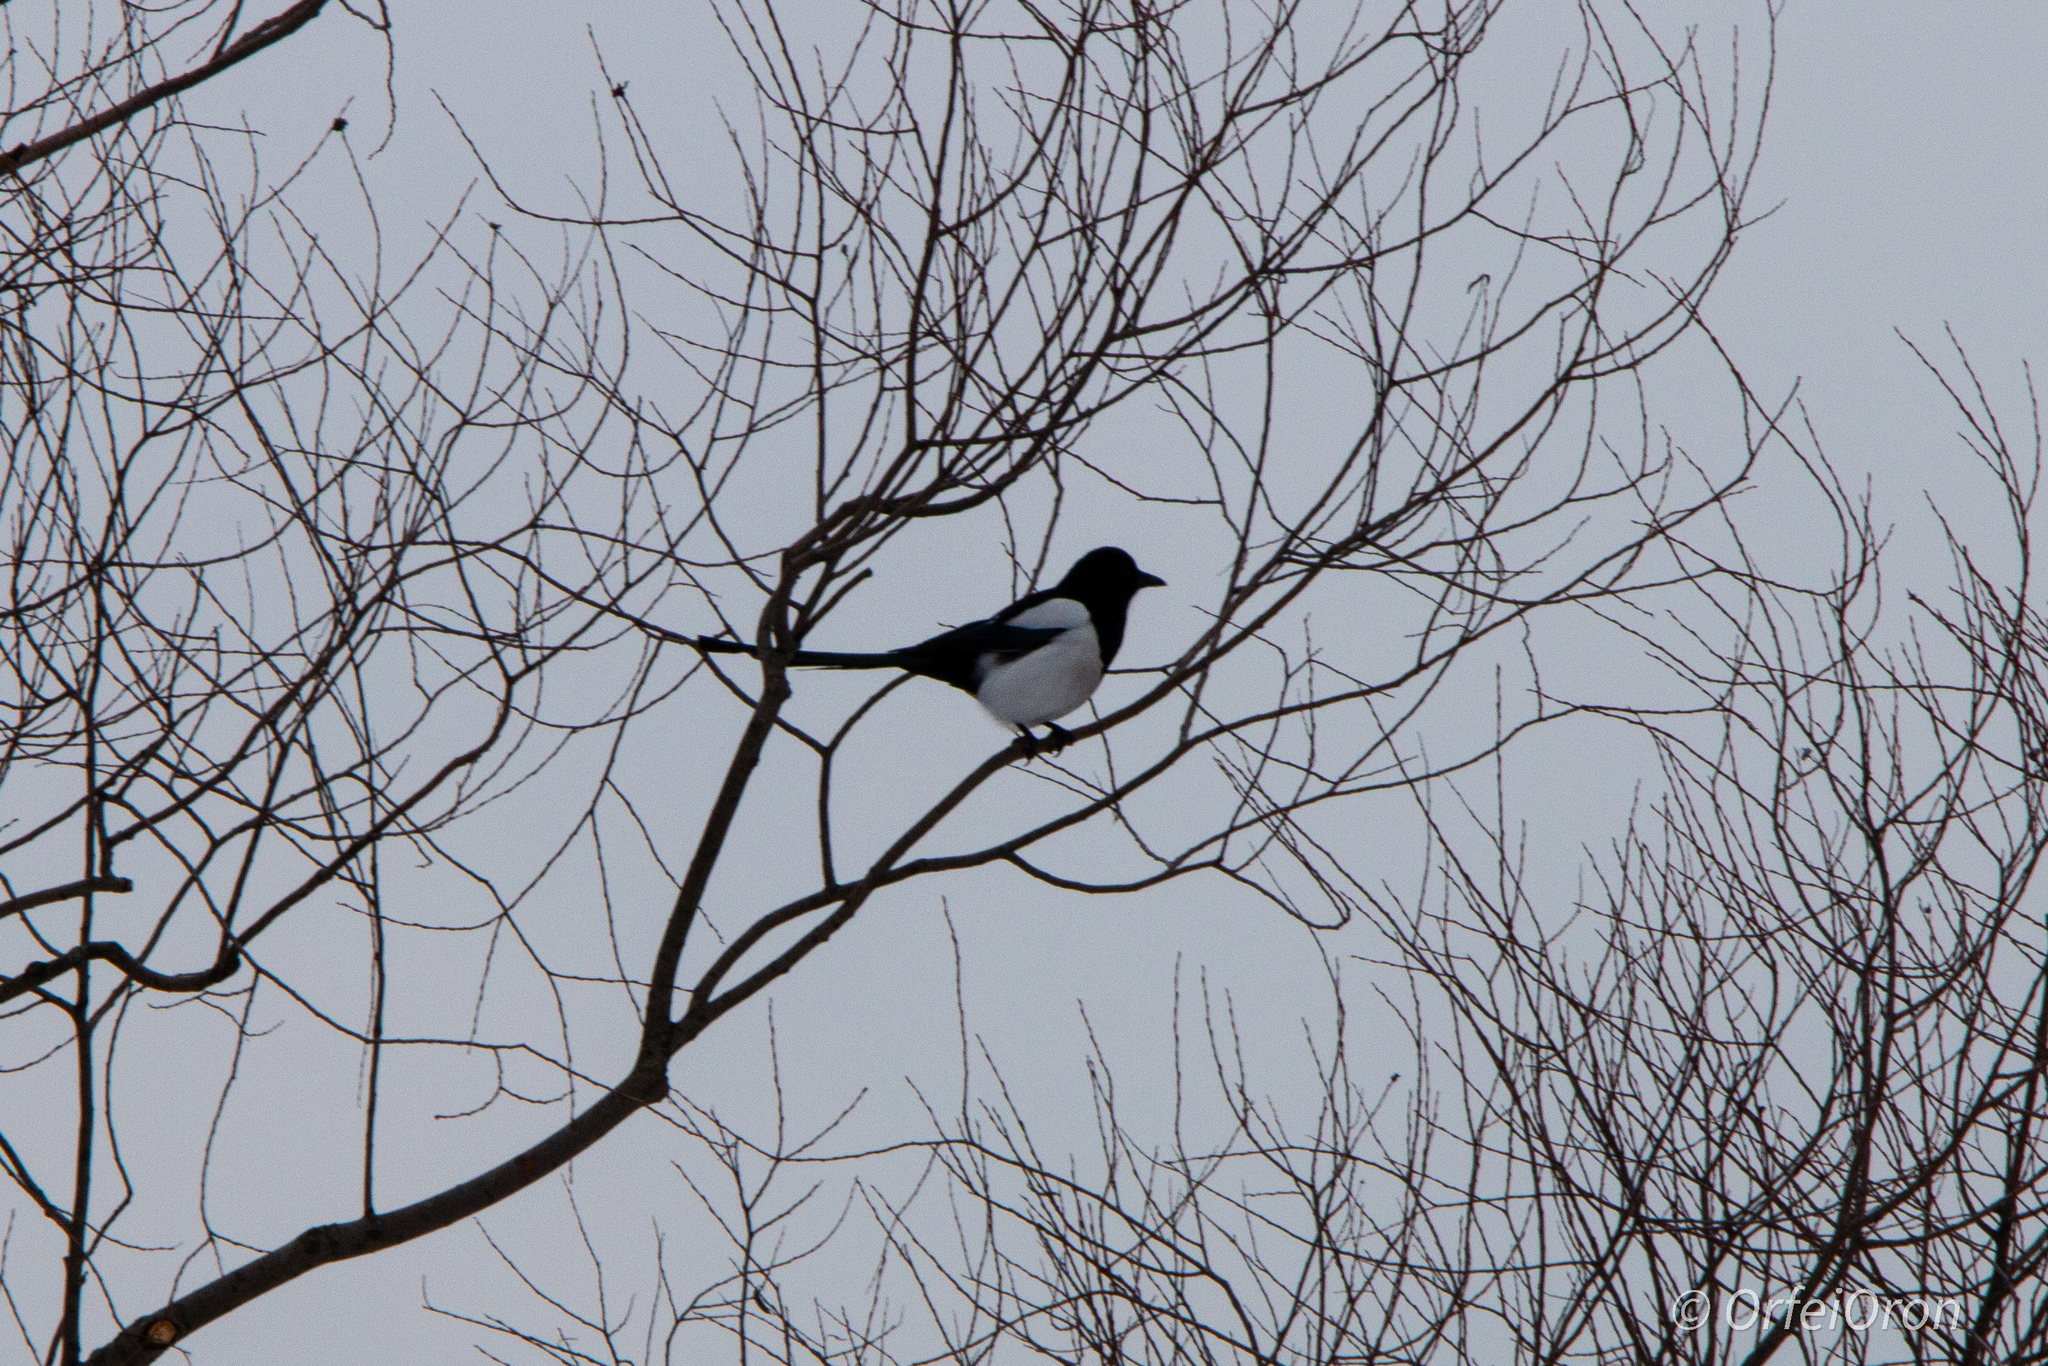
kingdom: Animalia
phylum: Chordata
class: Aves
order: Passeriformes
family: Corvidae
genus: Pica
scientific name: Pica pica
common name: Eurasian magpie
